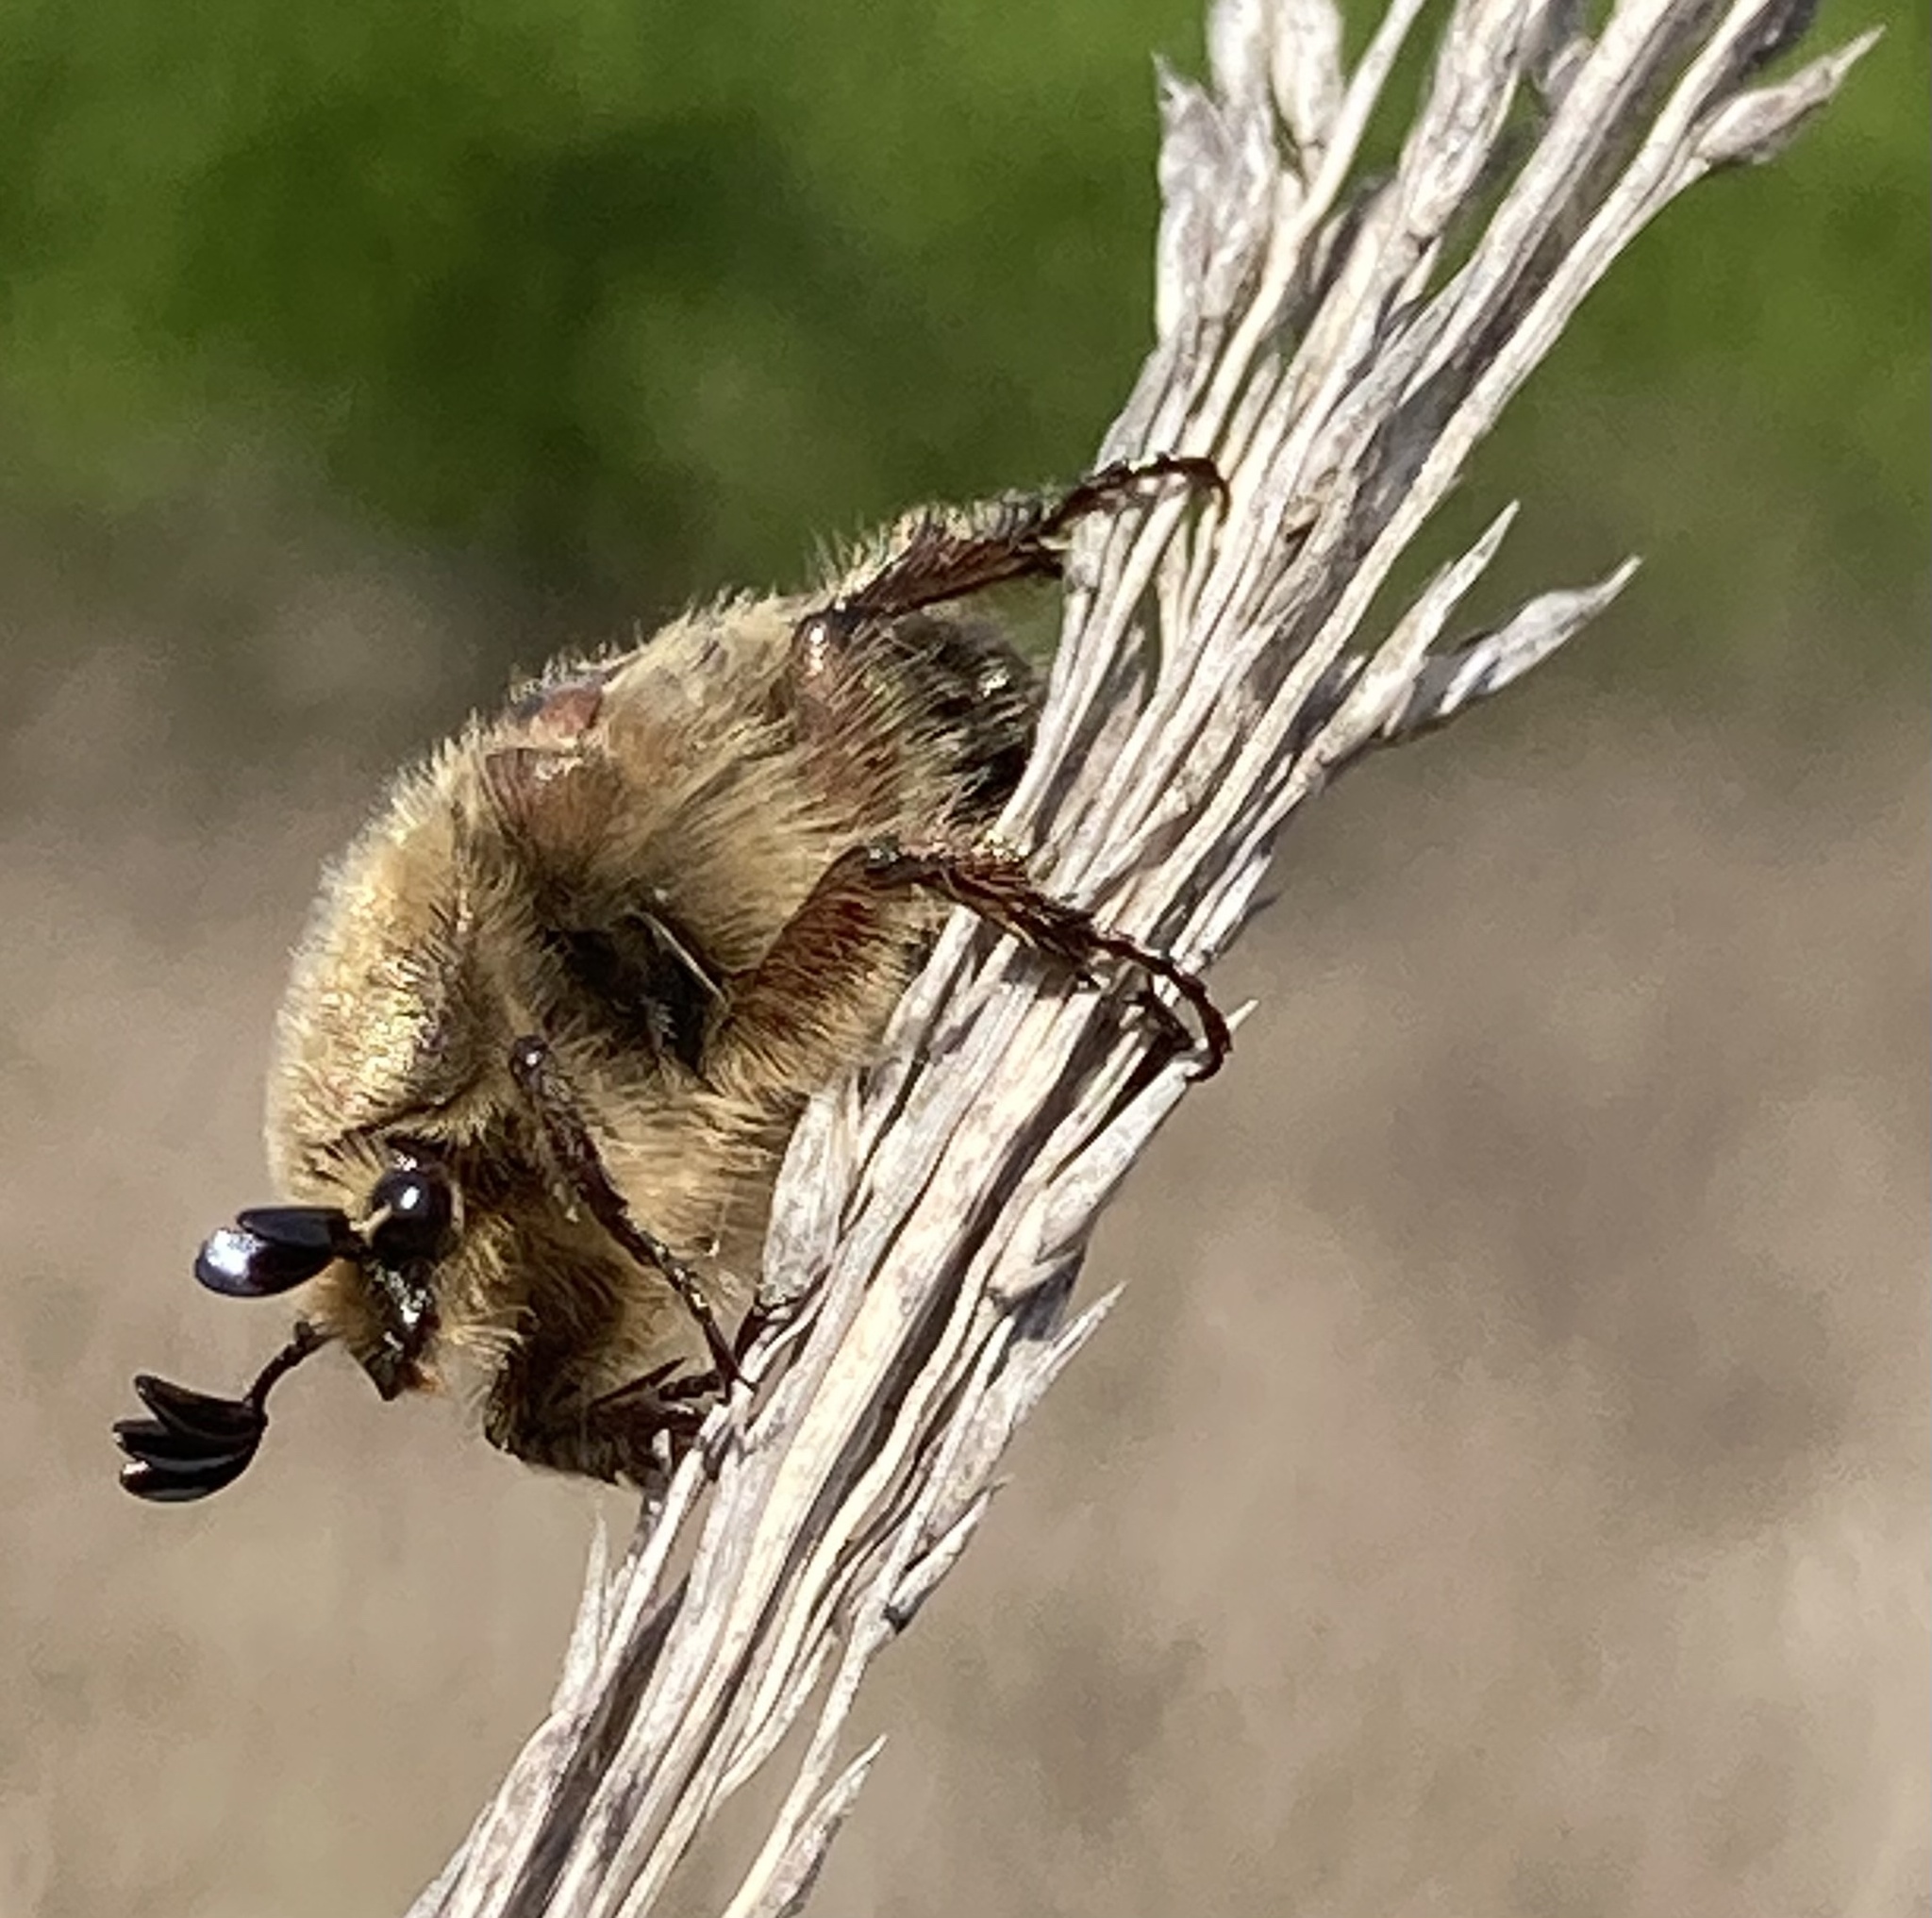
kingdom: Animalia
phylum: Arthropoda
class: Insecta
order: Coleoptera
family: Scarabaeidae
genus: Euphoria
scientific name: Euphoria inda
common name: Bumble flower beetle
